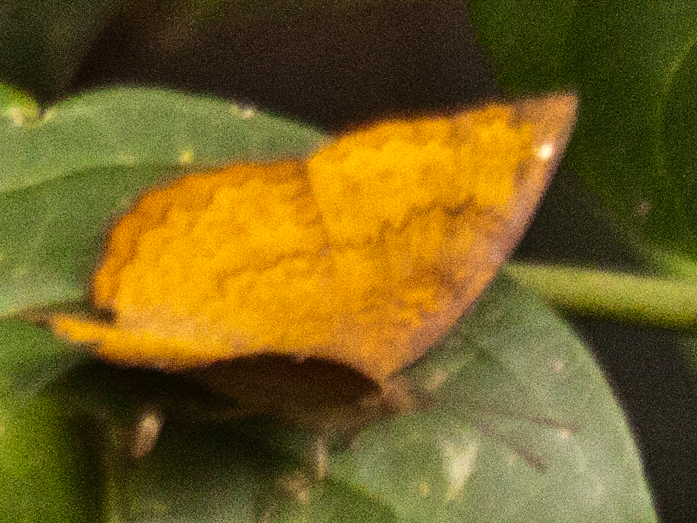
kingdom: Animalia
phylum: Arthropoda
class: Insecta
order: Lepidoptera
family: Nymphalidae
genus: Ariadne
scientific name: Ariadne merione
